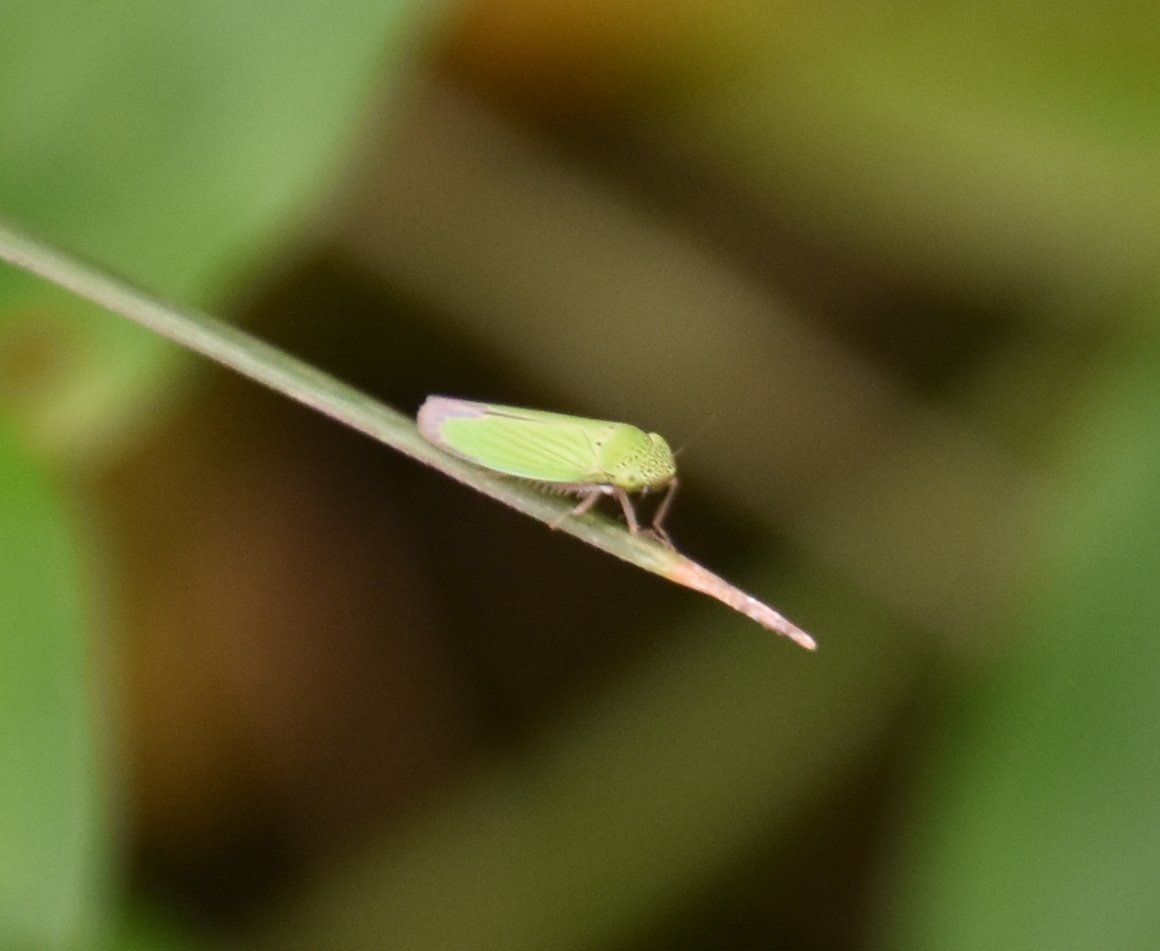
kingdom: Animalia
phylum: Arthropoda
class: Insecta
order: Hemiptera
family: Cicadellidae
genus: Hortensia
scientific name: Hortensia similis
